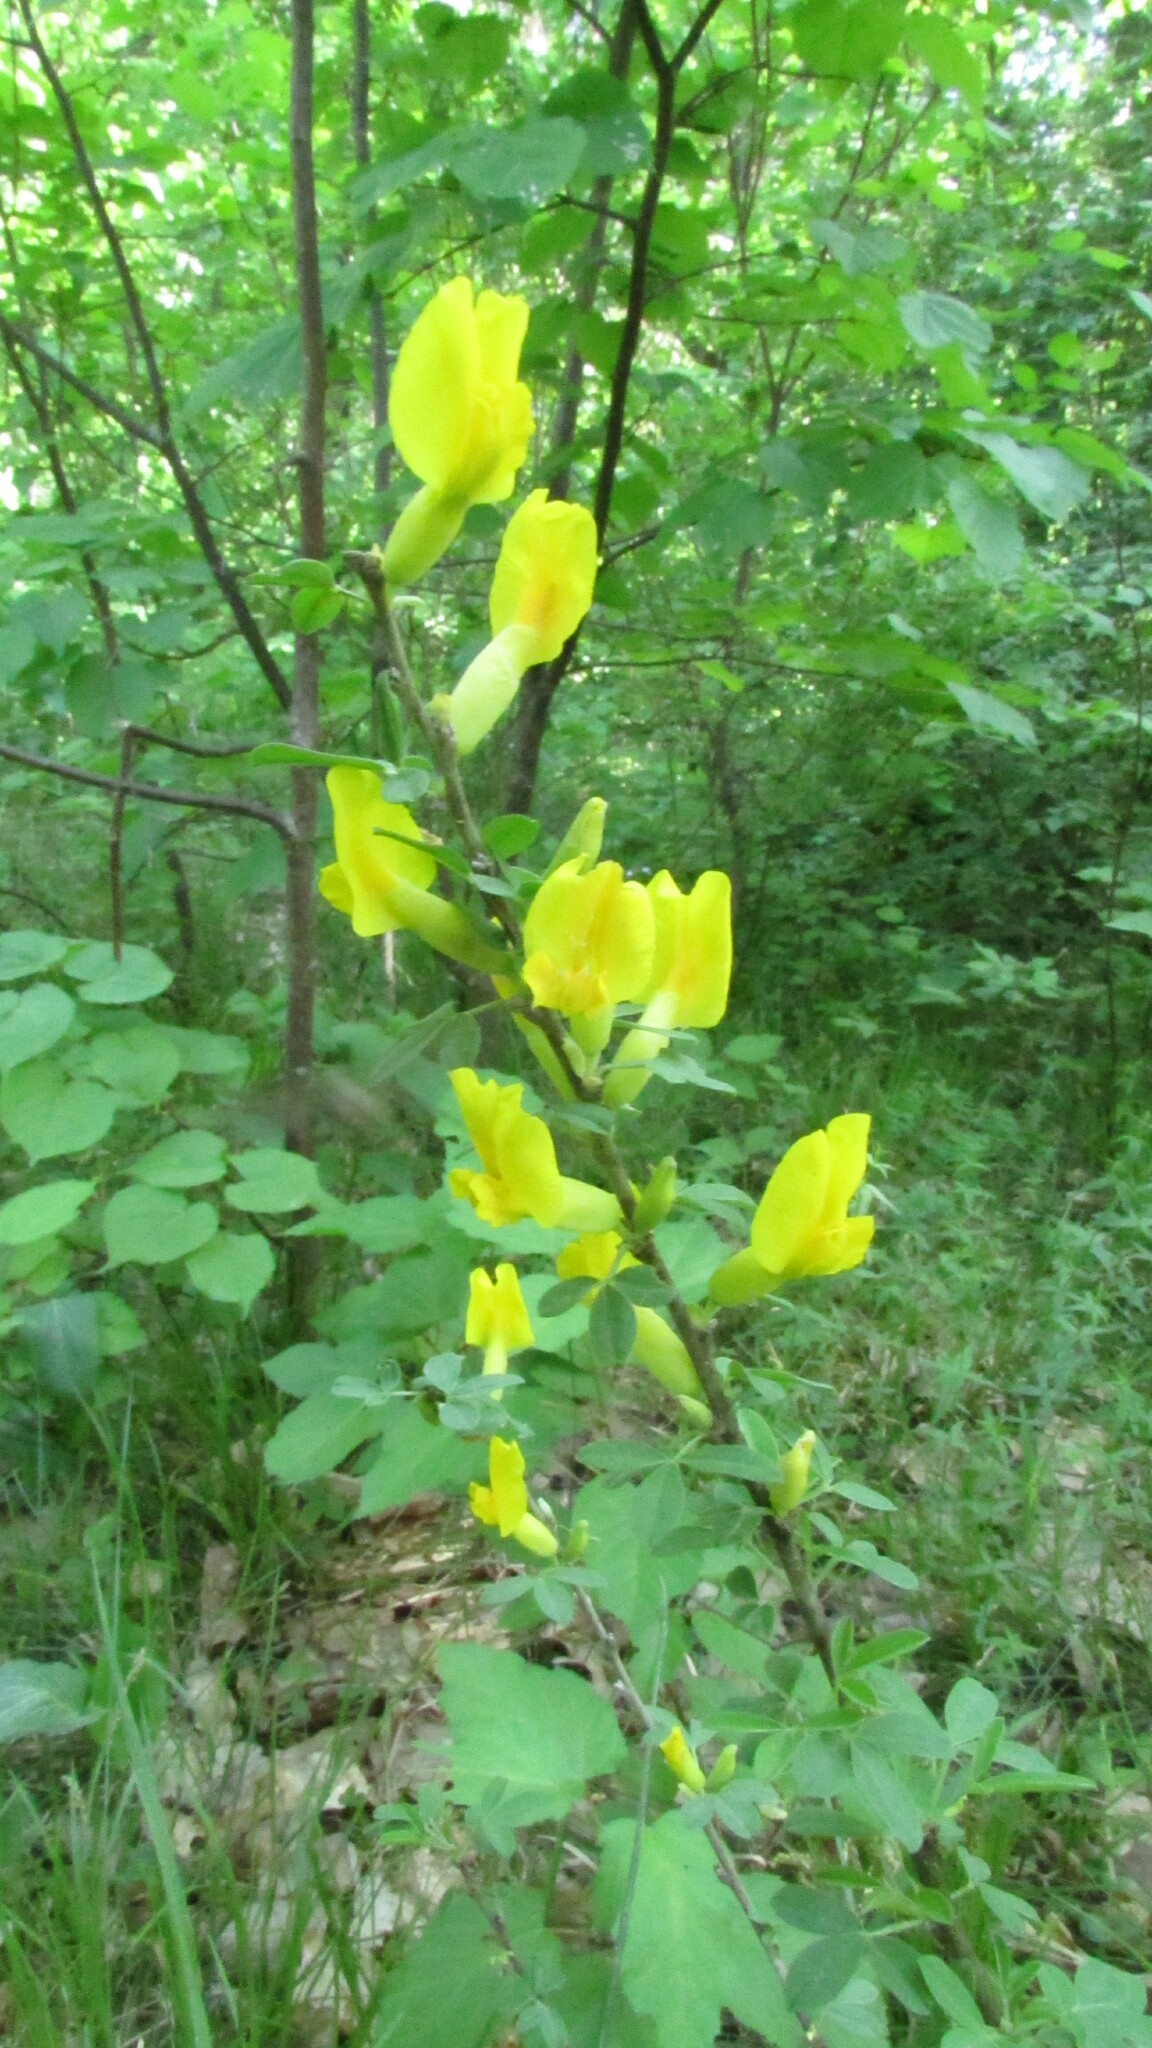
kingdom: Plantae
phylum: Tracheophyta
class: Magnoliopsida
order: Fabales
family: Fabaceae
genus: Chamaecytisus
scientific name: Chamaecytisus ruthenicus
